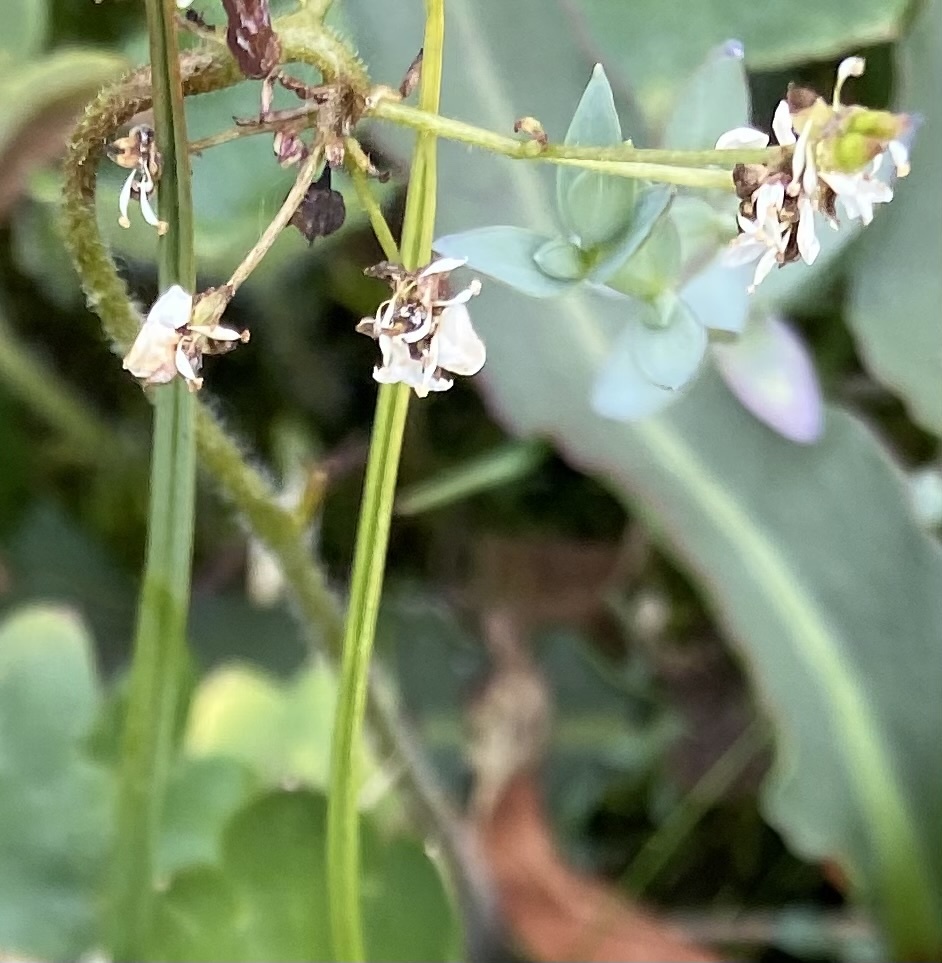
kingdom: Plantae
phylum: Tracheophyta
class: Magnoliopsida
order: Saxifragales
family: Saxifragaceae
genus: Micranthes
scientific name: Micranthes nelsoniana
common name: Nelson's saxifrage
